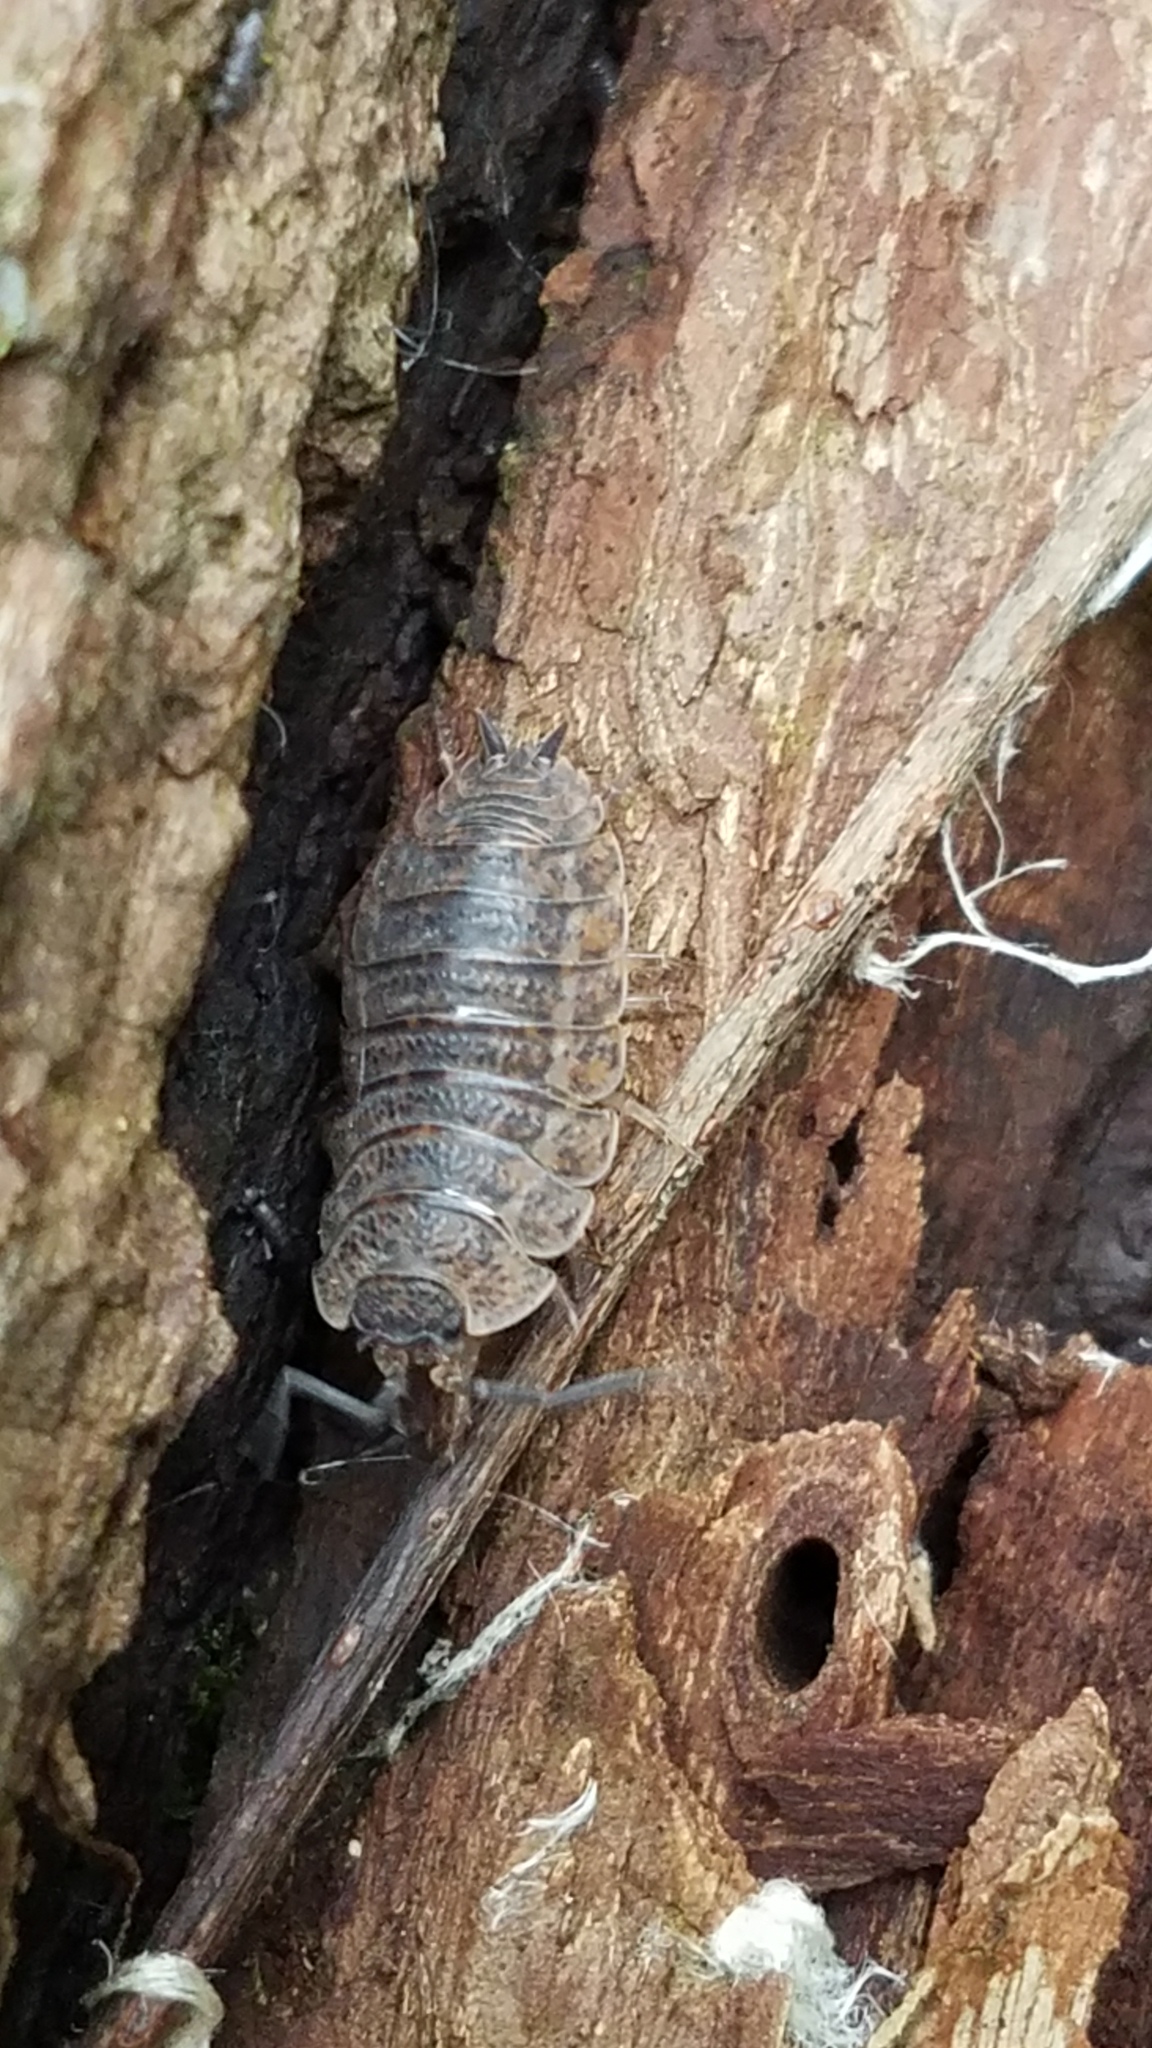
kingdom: Animalia
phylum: Arthropoda
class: Malacostraca
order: Isopoda
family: Trachelipodidae
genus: Trachelipus
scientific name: Trachelipus rathkii
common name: Isopod
